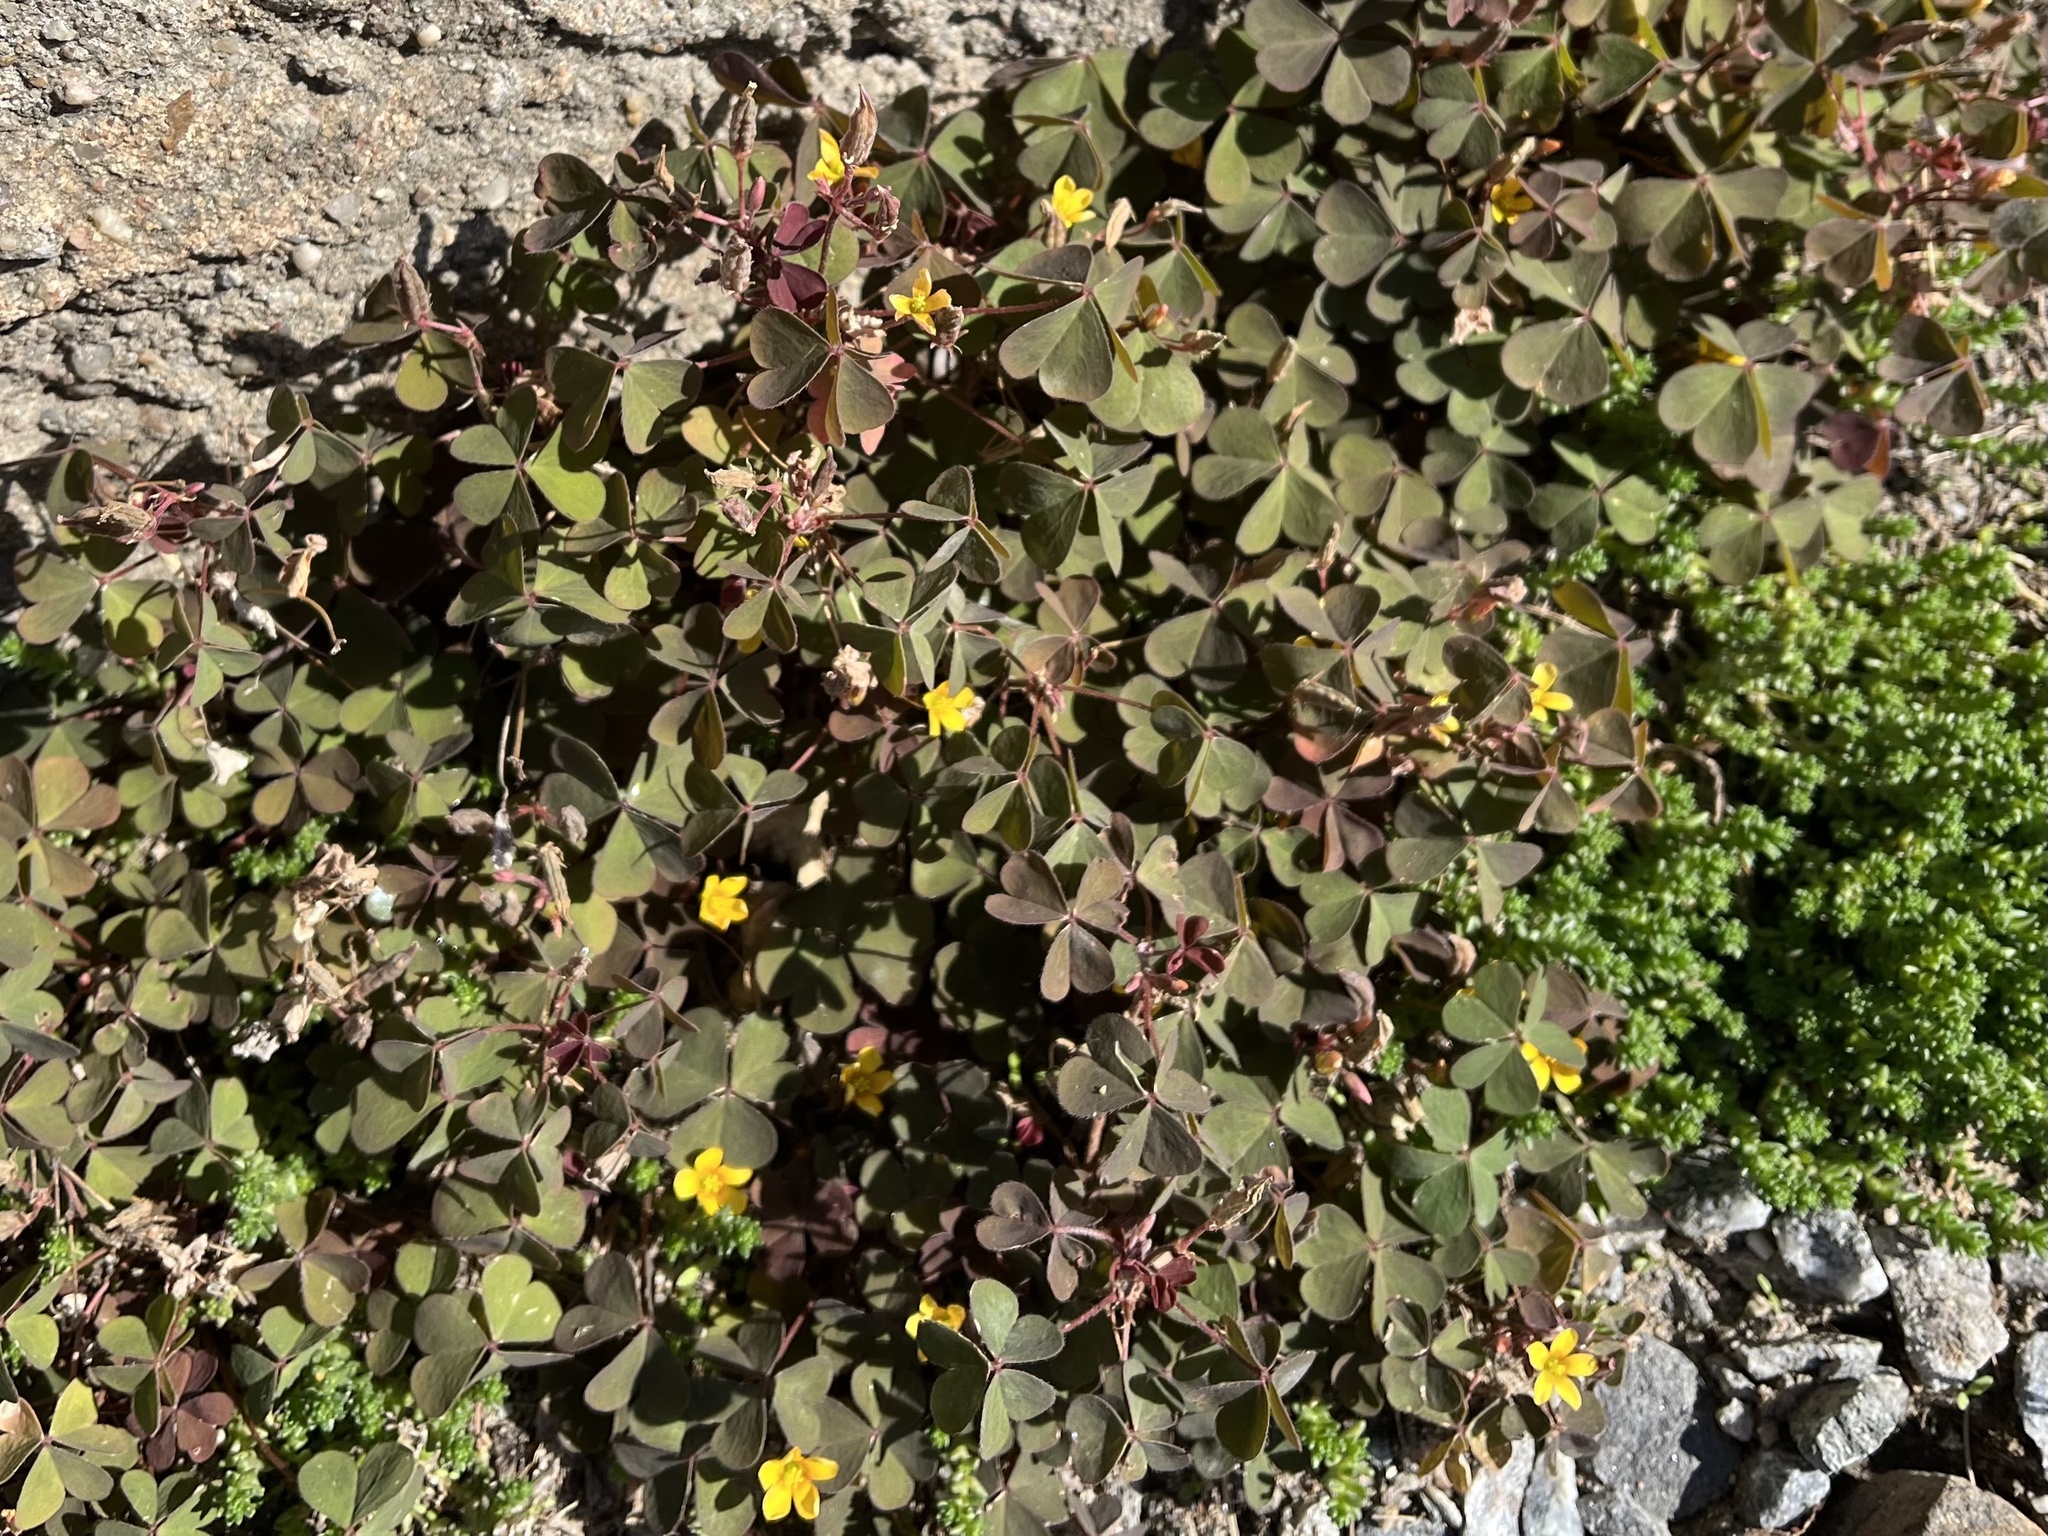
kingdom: Plantae
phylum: Tracheophyta
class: Magnoliopsida
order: Oxalidales
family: Oxalidaceae
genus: Oxalis
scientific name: Oxalis corniculata
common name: Procumbent yellow-sorrel
